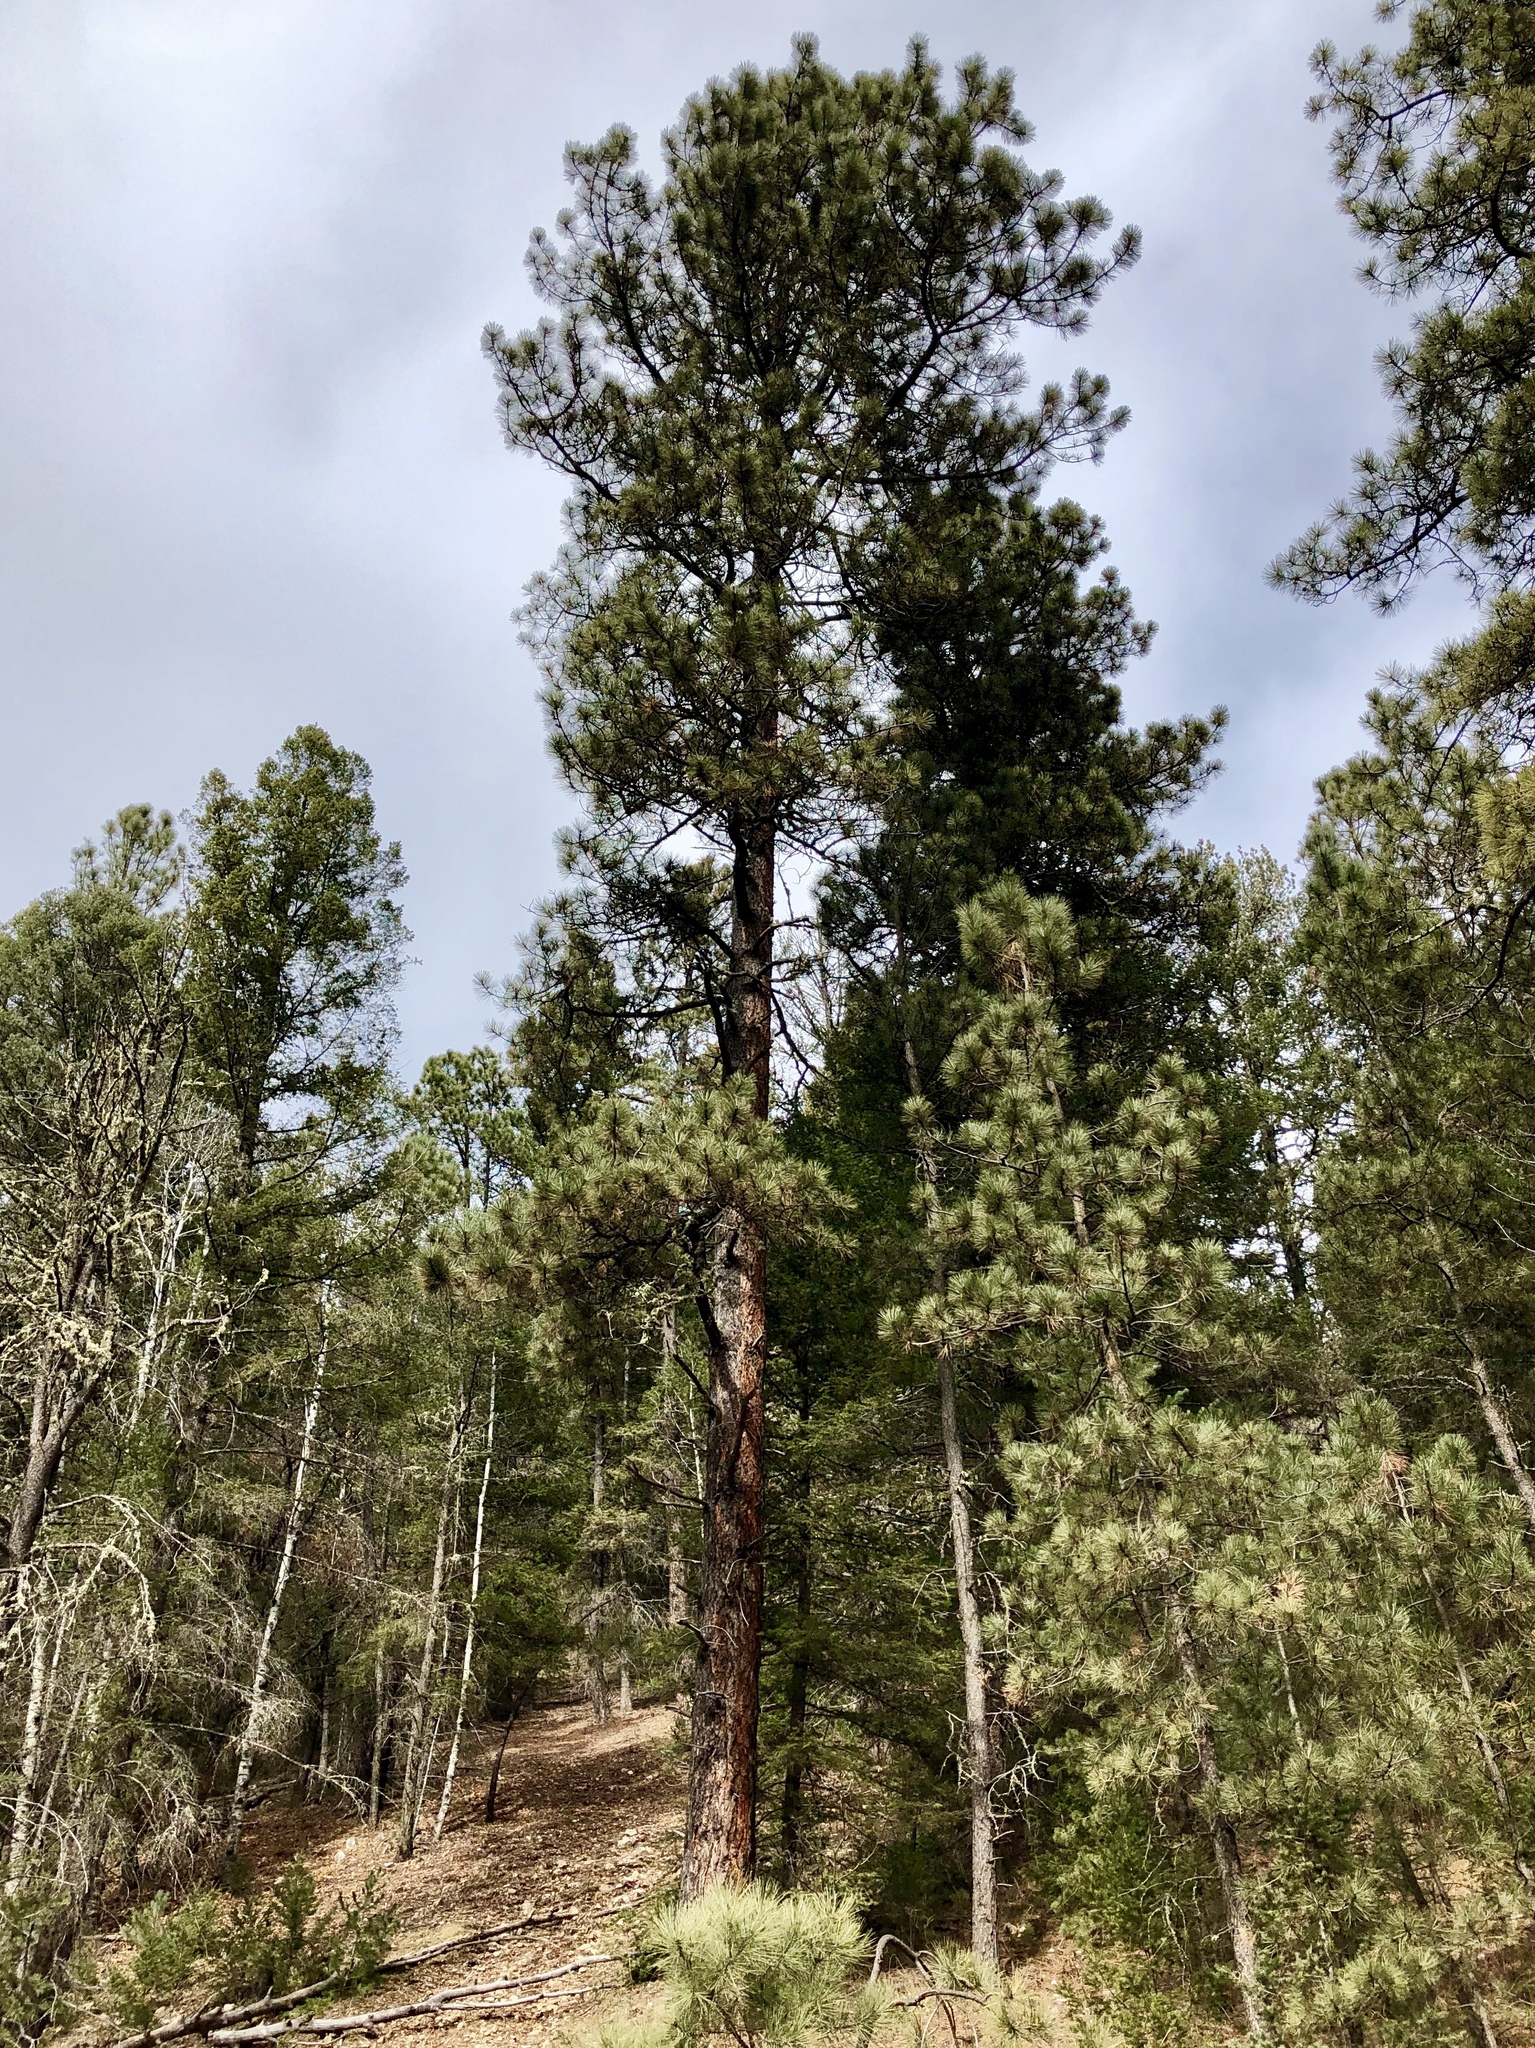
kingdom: Plantae
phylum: Tracheophyta
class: Pinopsida
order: Pinales
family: Pinaceae
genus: Pinus
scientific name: Pinus ponderosa
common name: Western yellow-pine
